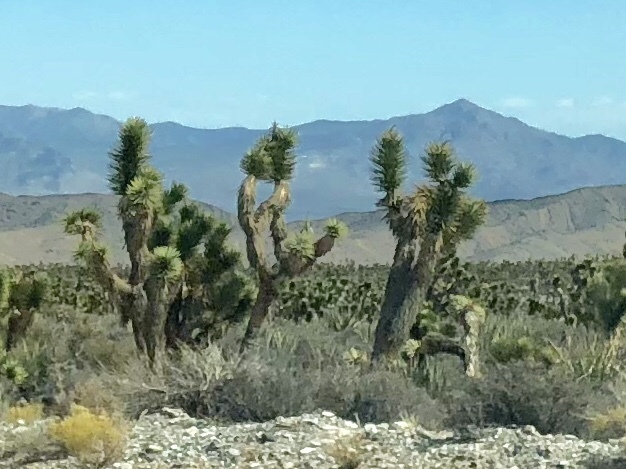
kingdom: Plantae
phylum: Tracheophyta
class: Liliopsida
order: Asparagales
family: Asparagaceae
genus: Yucca
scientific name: Yucca brevifolia
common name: Joshua tree
